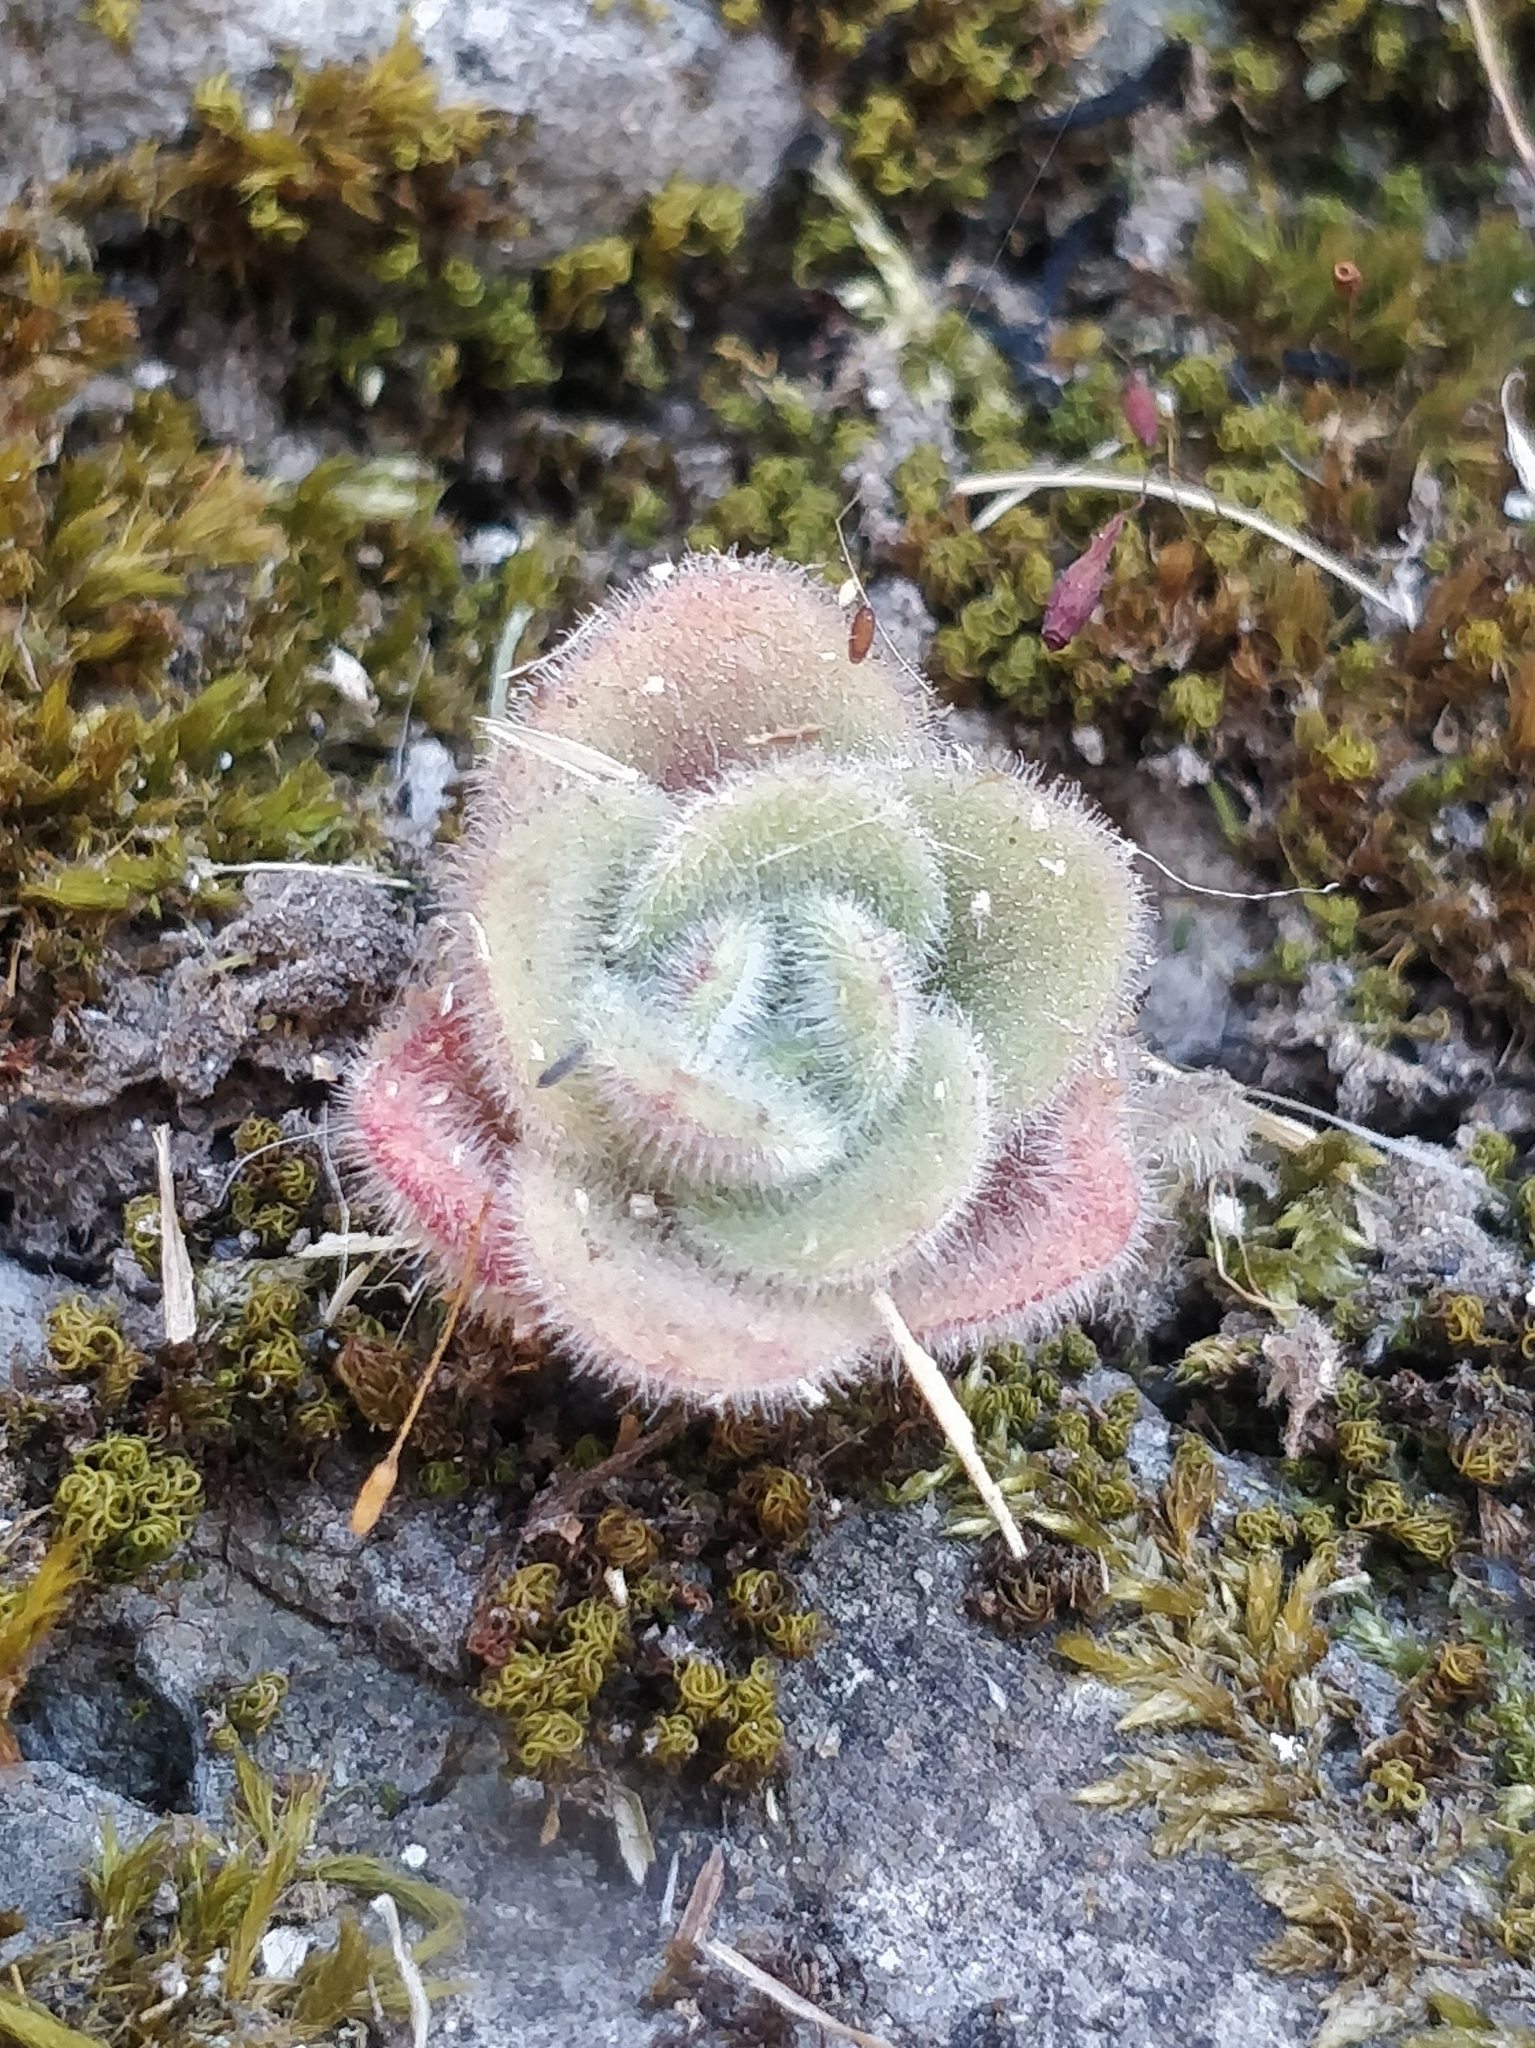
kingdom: Plantae
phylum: Tracheophyta
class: Magnoliopsida
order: Saxifragales
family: Crassulaceae
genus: Aichryson
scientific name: Aichryson villosum
